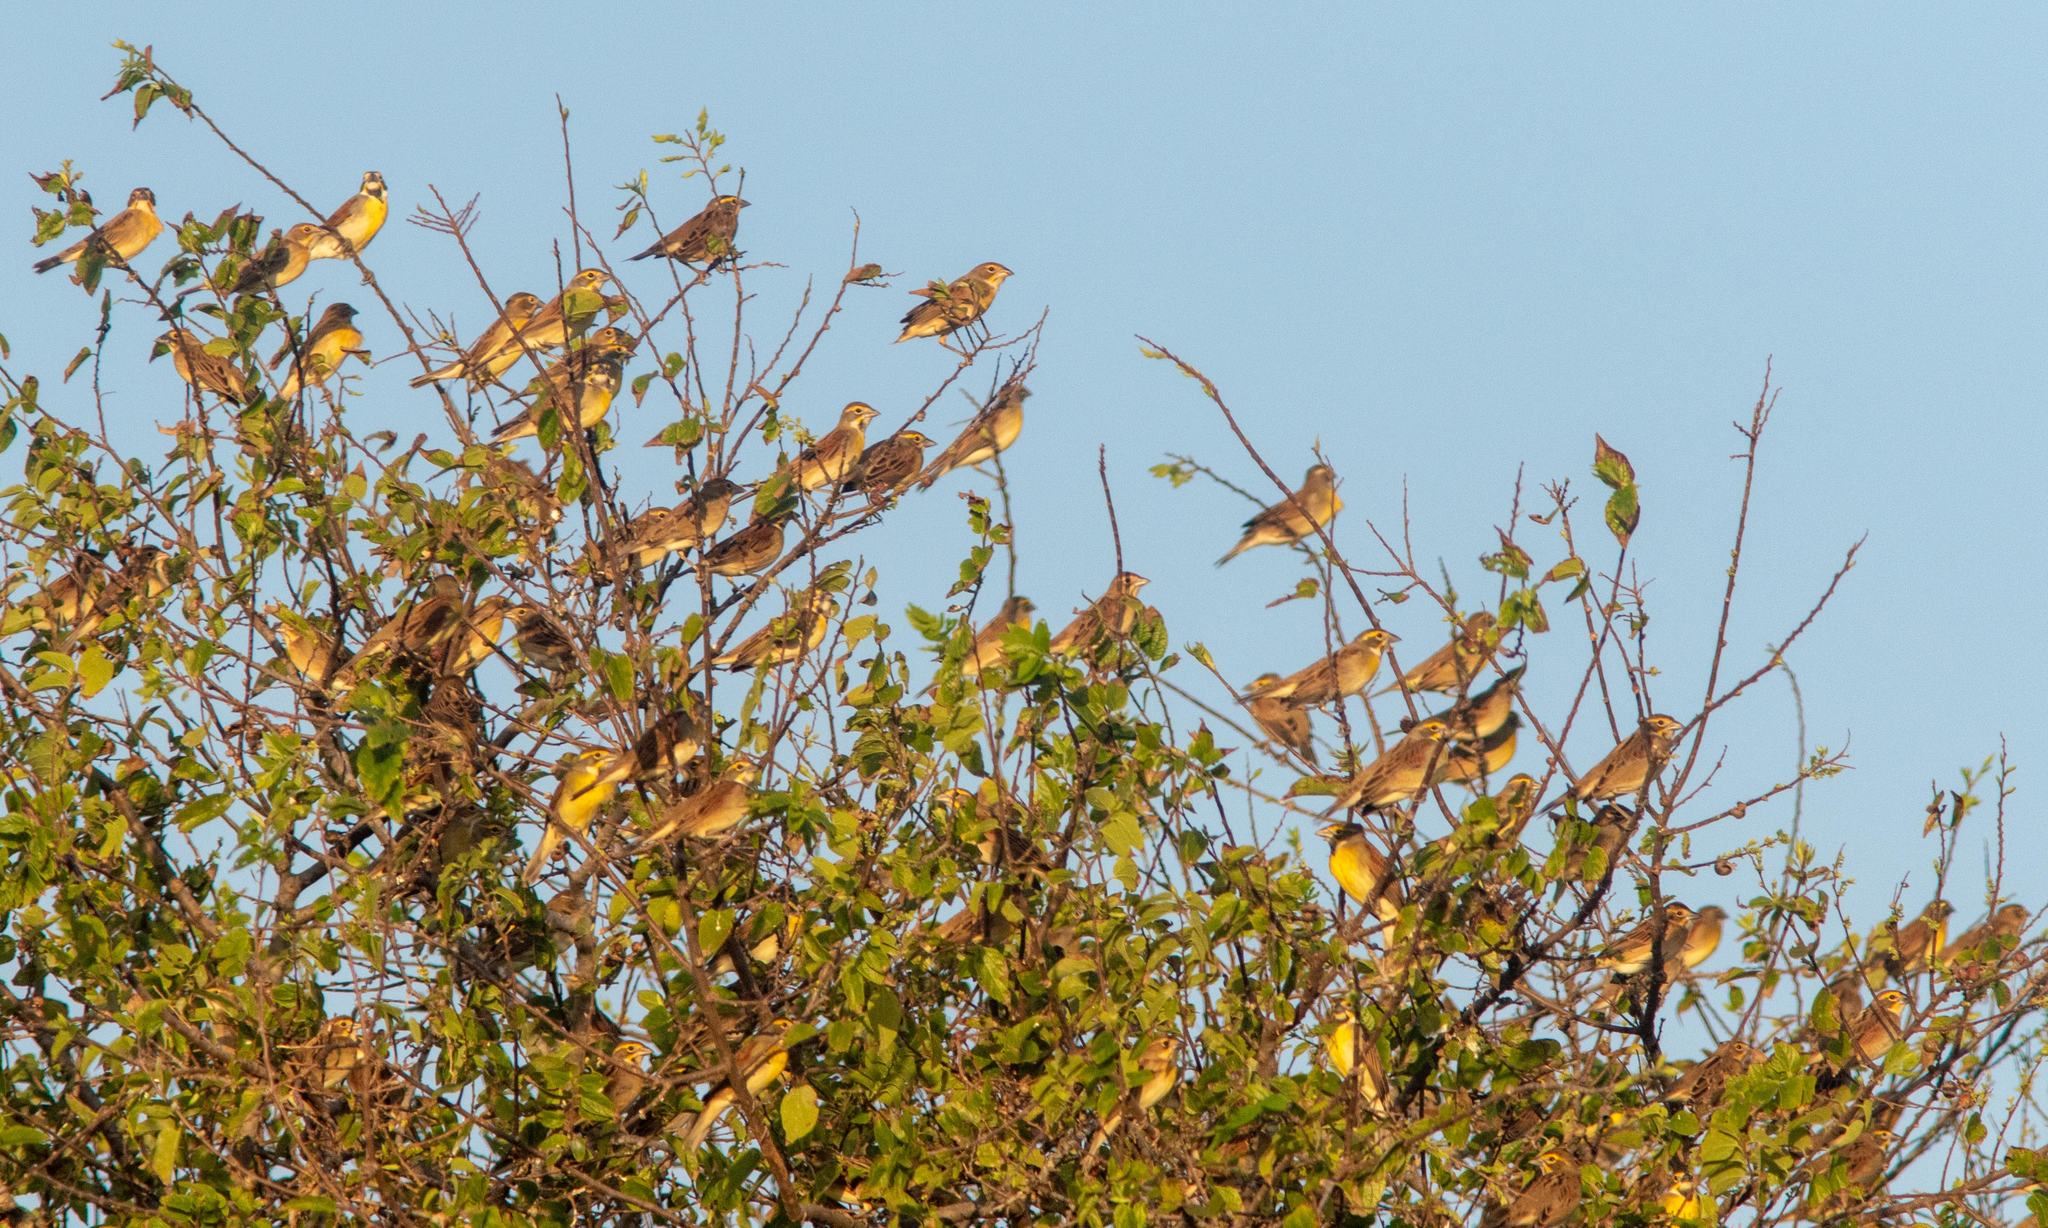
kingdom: Animalia
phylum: Chordata
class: Aves
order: Passeriformes
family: Cardinalidae
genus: Spiza
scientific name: Spiza americana
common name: Dickcissel
